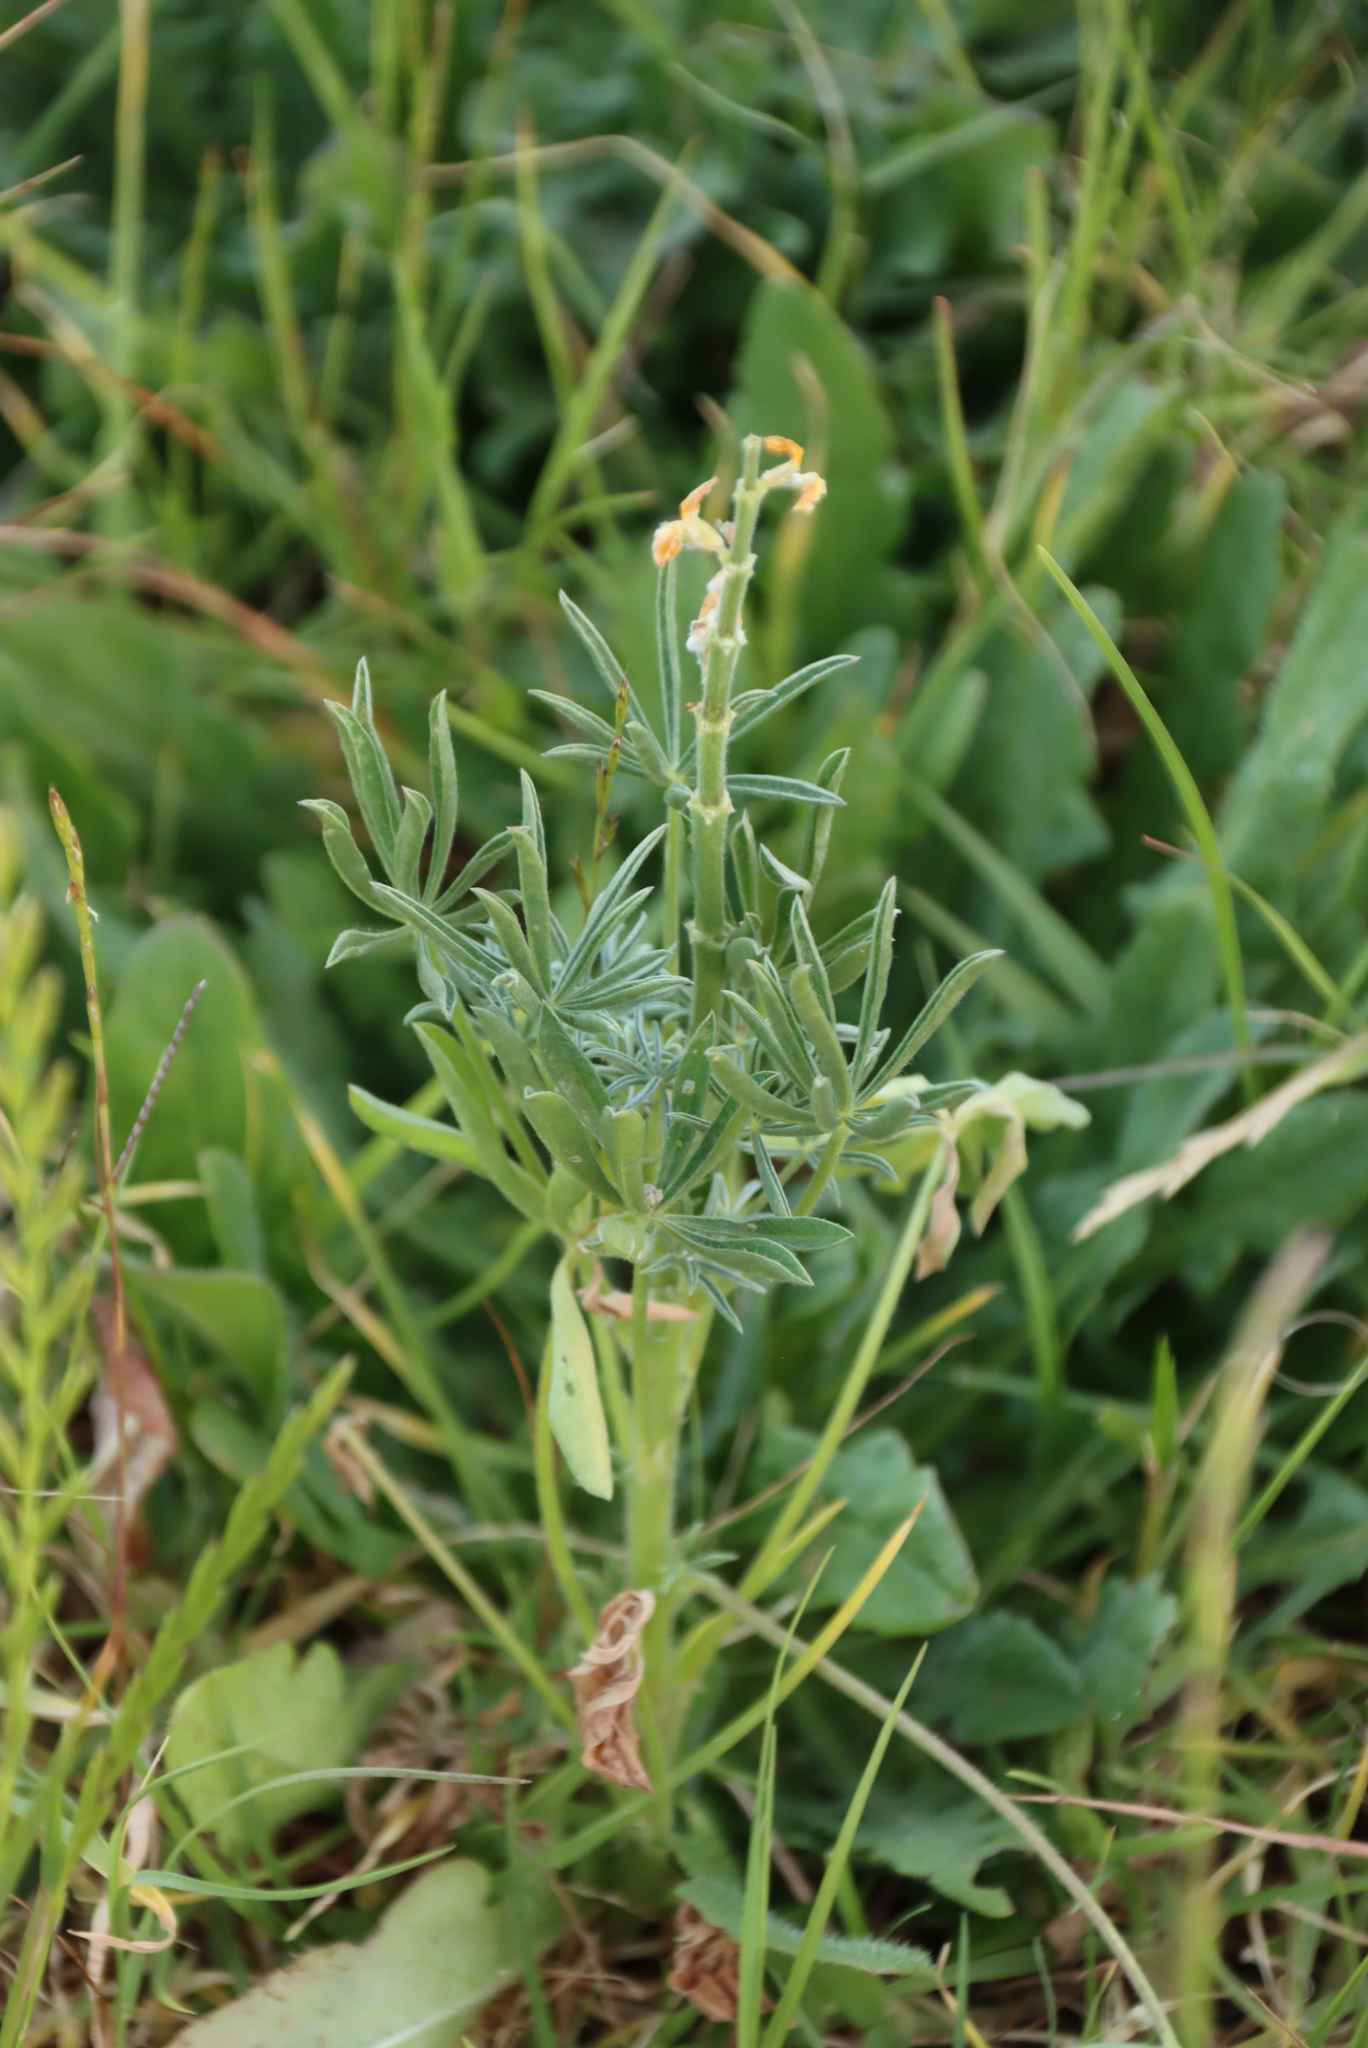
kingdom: Plantae
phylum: Tracheophyta
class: Magnoliopsida
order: Fabales
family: Fabaceae
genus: Lupinus
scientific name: Lupinus luteus
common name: European yellow lupine
